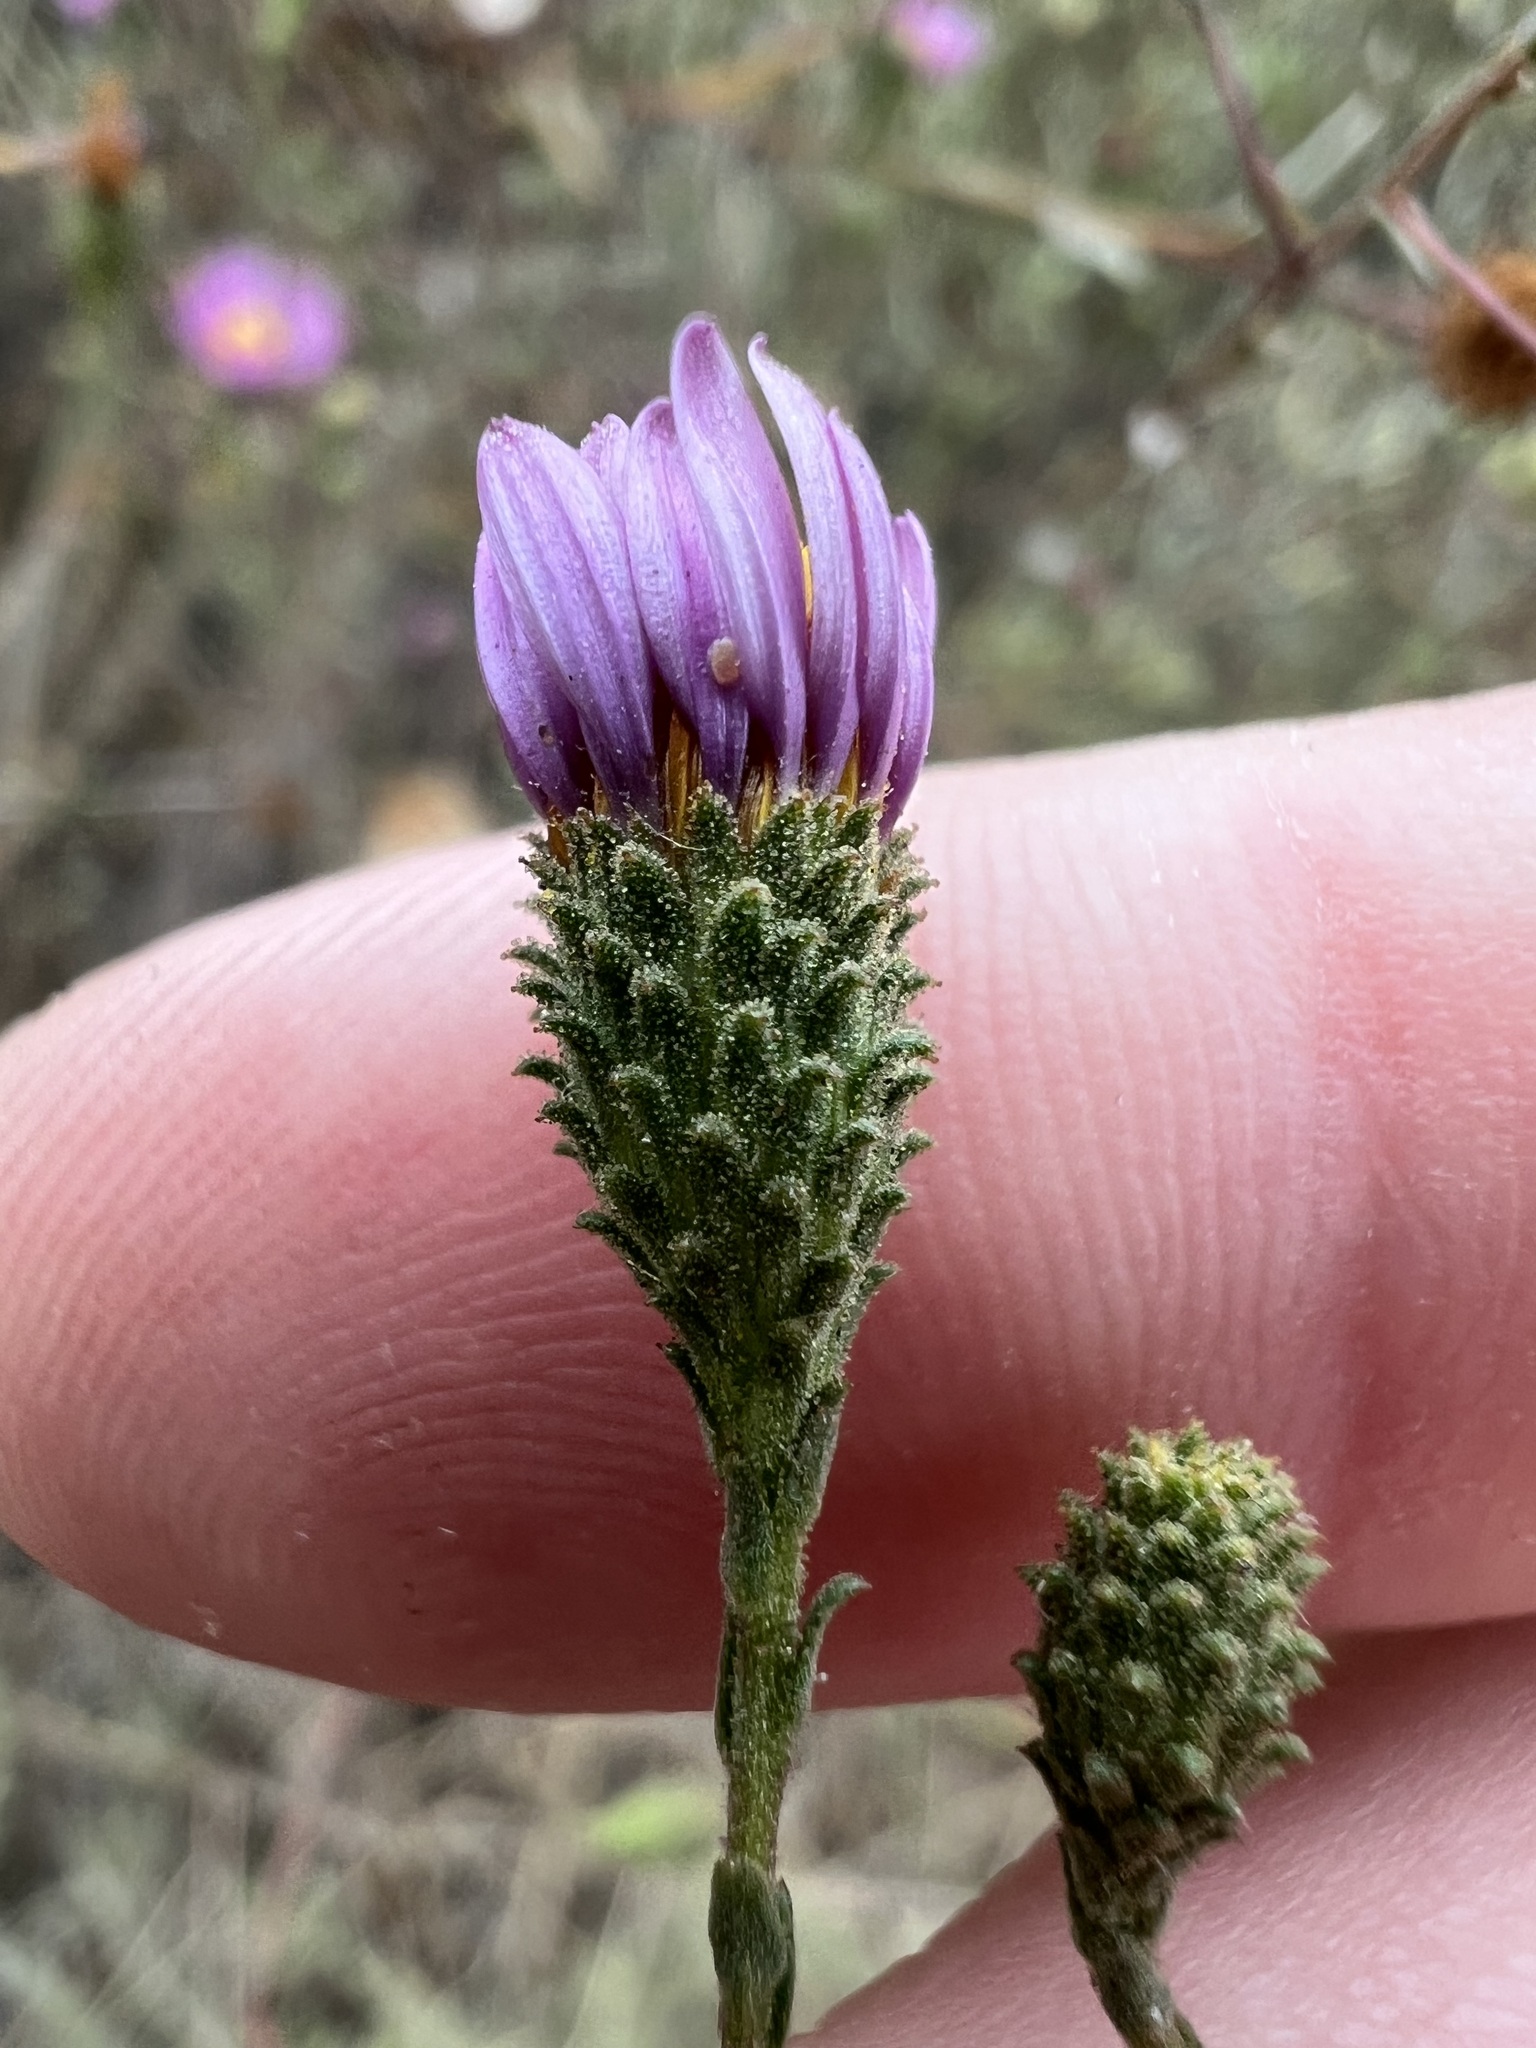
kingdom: Plantae
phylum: Tracheophyta
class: Magnoliopsida
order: Asterales
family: Asteraceae
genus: Corethrogyne
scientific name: Corethrogyne filaginifolia
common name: Sand-aster
